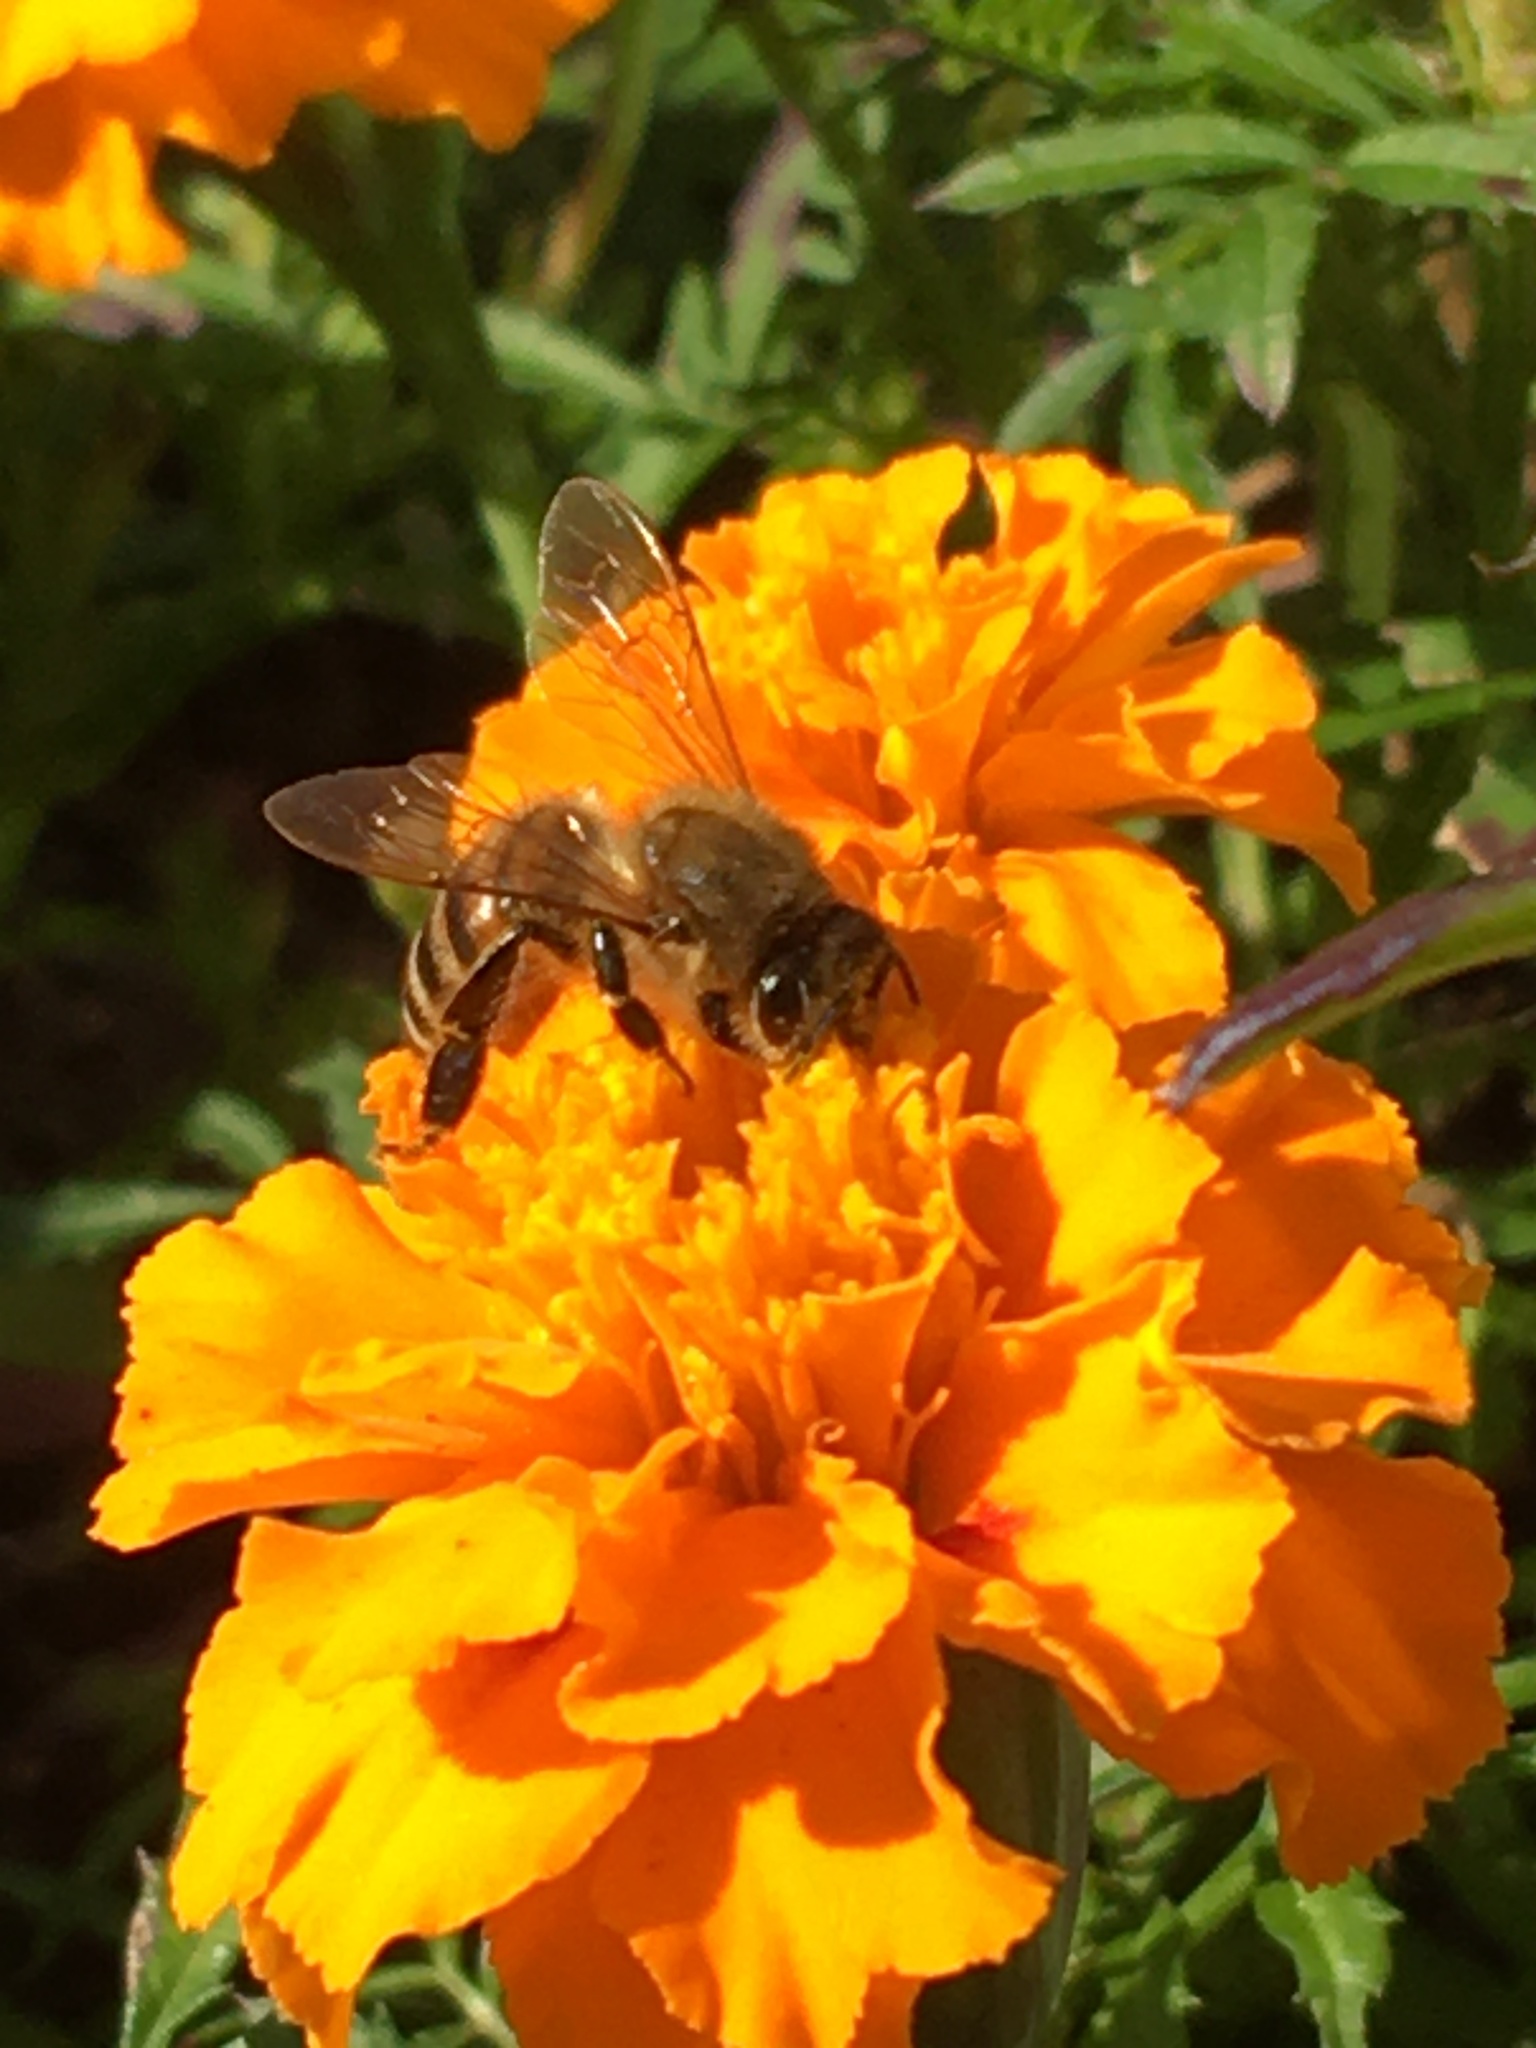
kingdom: Animalia
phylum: Arthropoda
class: Insecta
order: Hymenoptera
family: Apidae
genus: Apis
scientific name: Apis mellifera
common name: Honey bee
